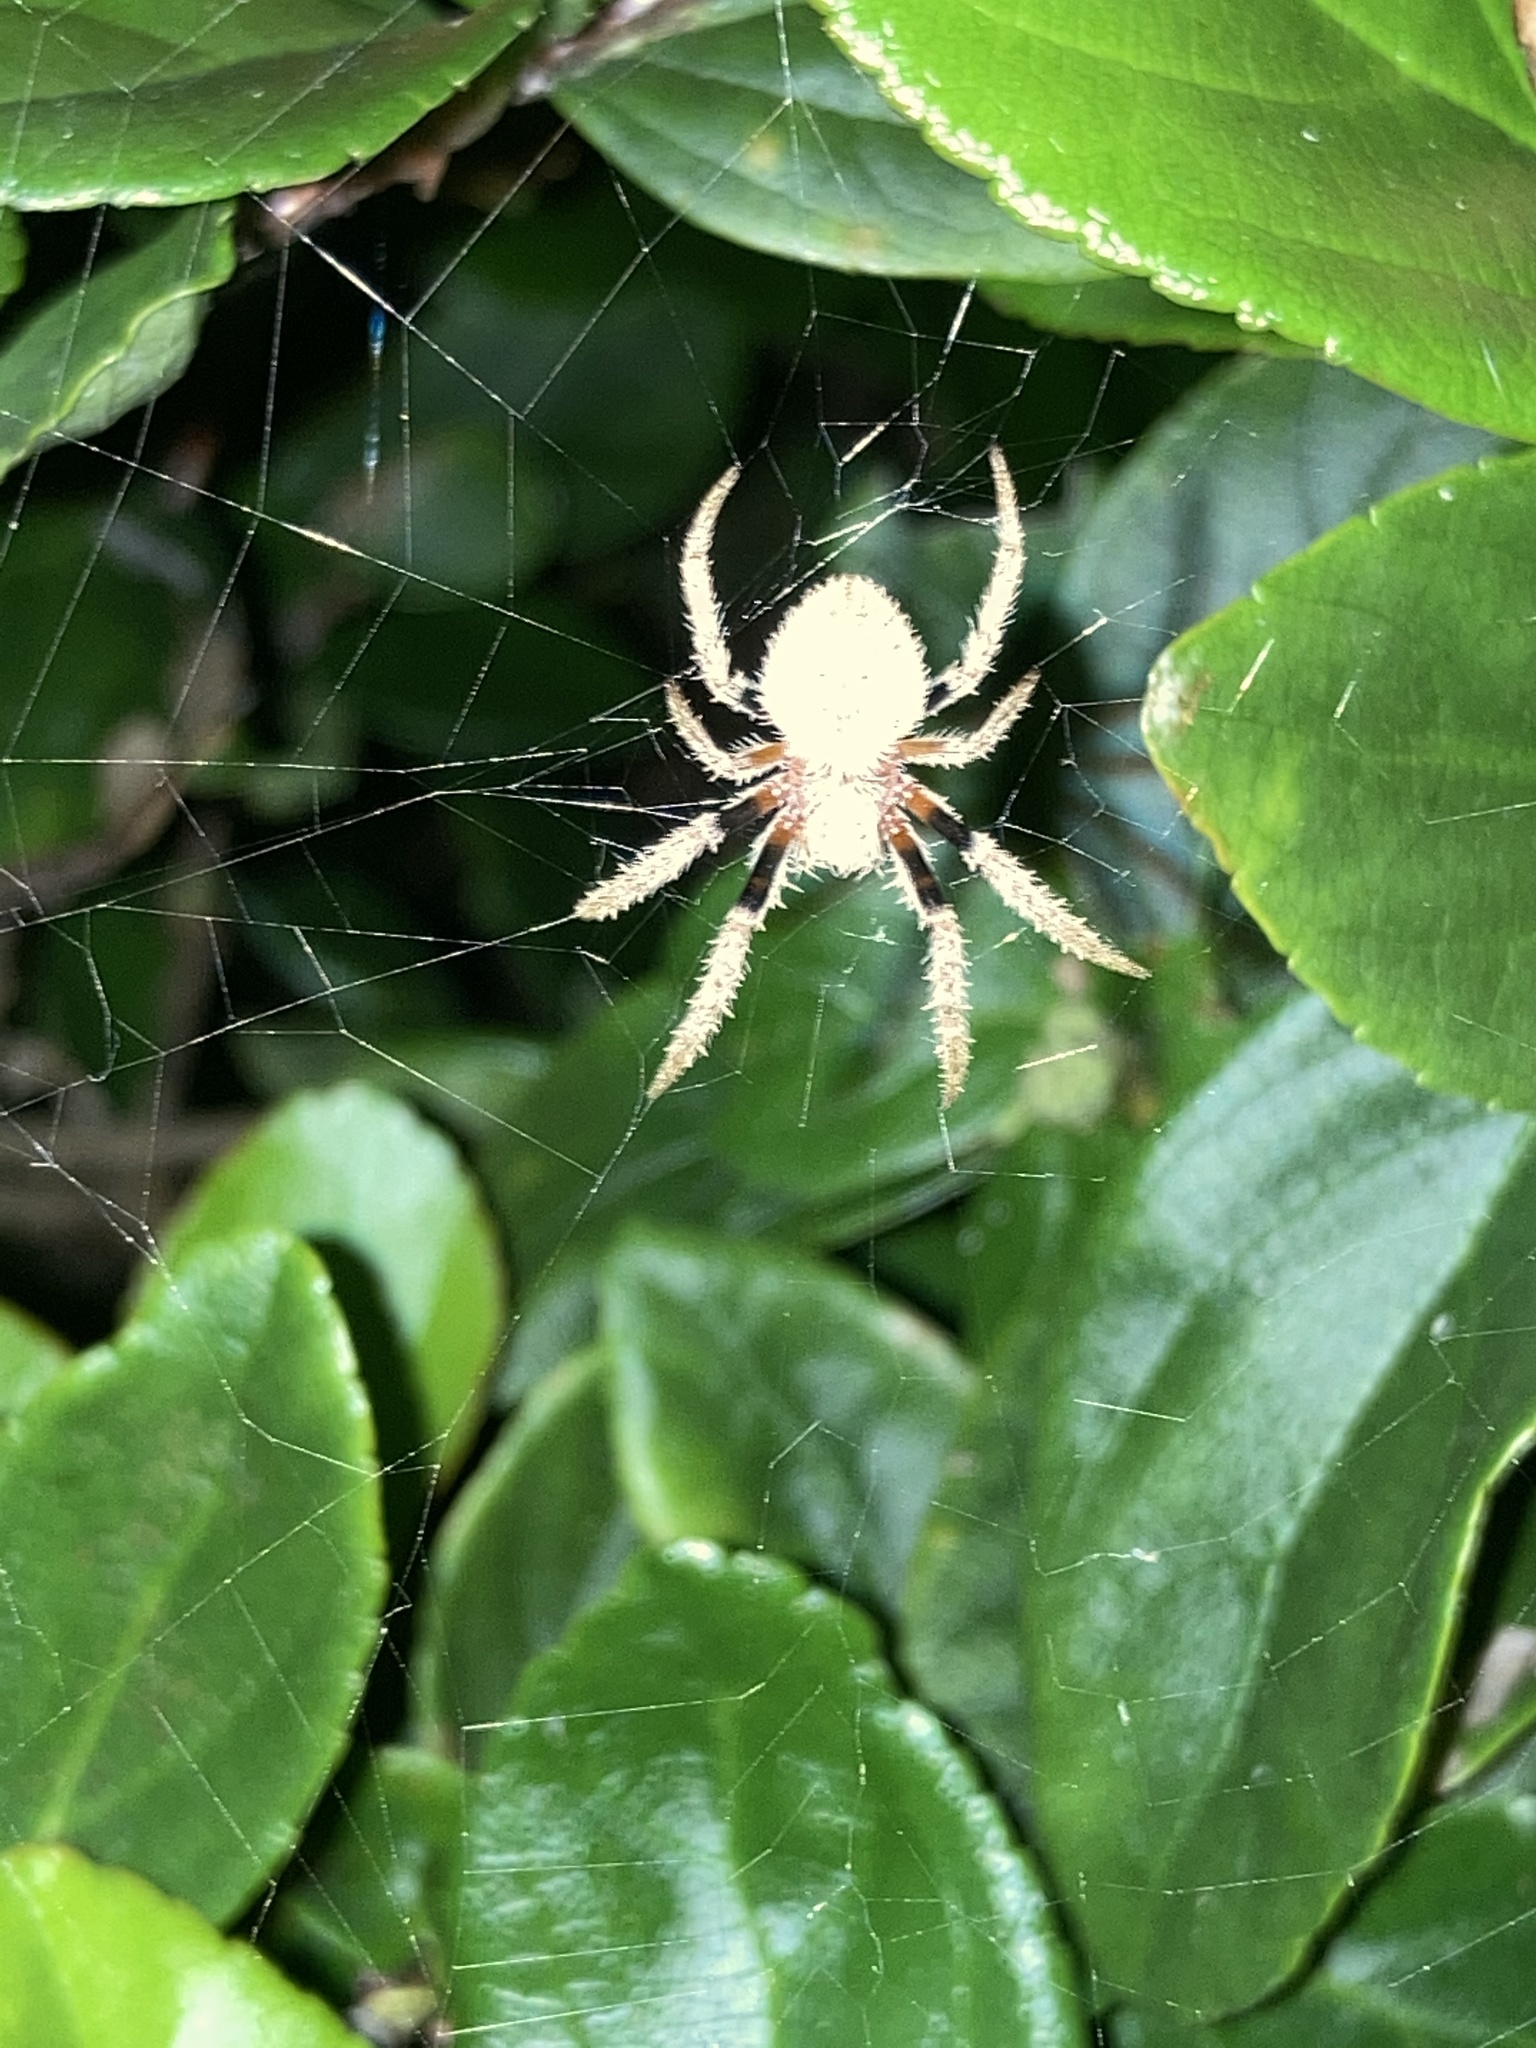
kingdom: Animalia
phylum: Arthropoda
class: Arachnida
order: Araneae
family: Araneidae
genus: Eriophora
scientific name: Eriophora ravilla
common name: Orb weavers
